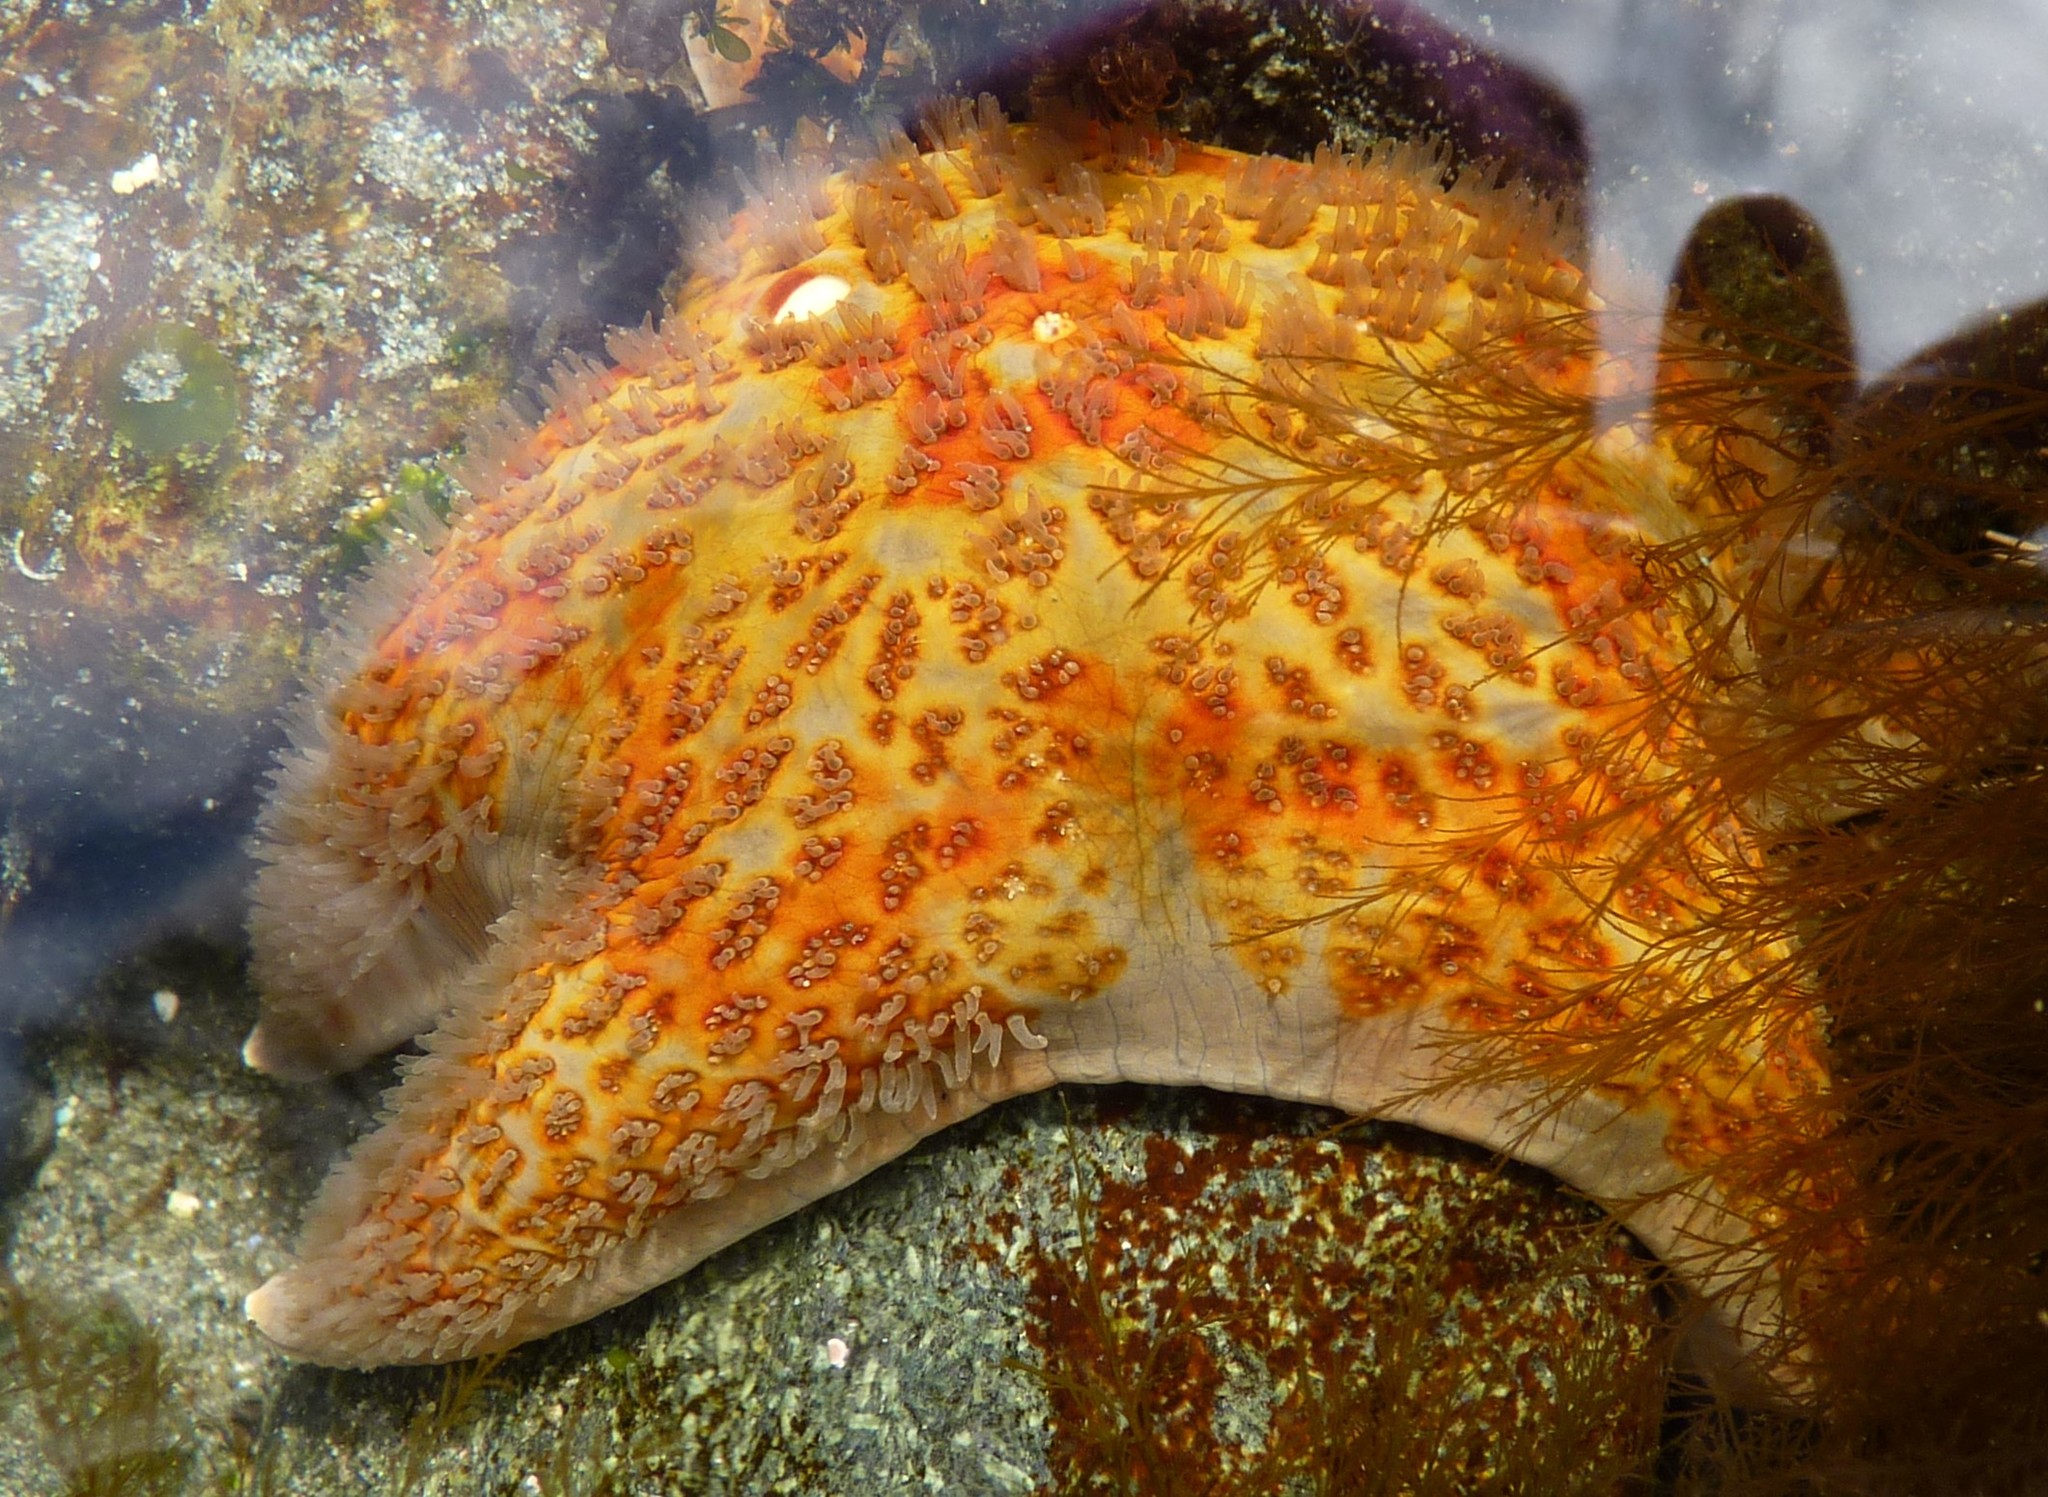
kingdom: Animalia
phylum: Echinodermata
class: Asteroidea
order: Valvatida
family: Asteropseidae
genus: Dermasterias
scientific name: Dermasterias imbricata
